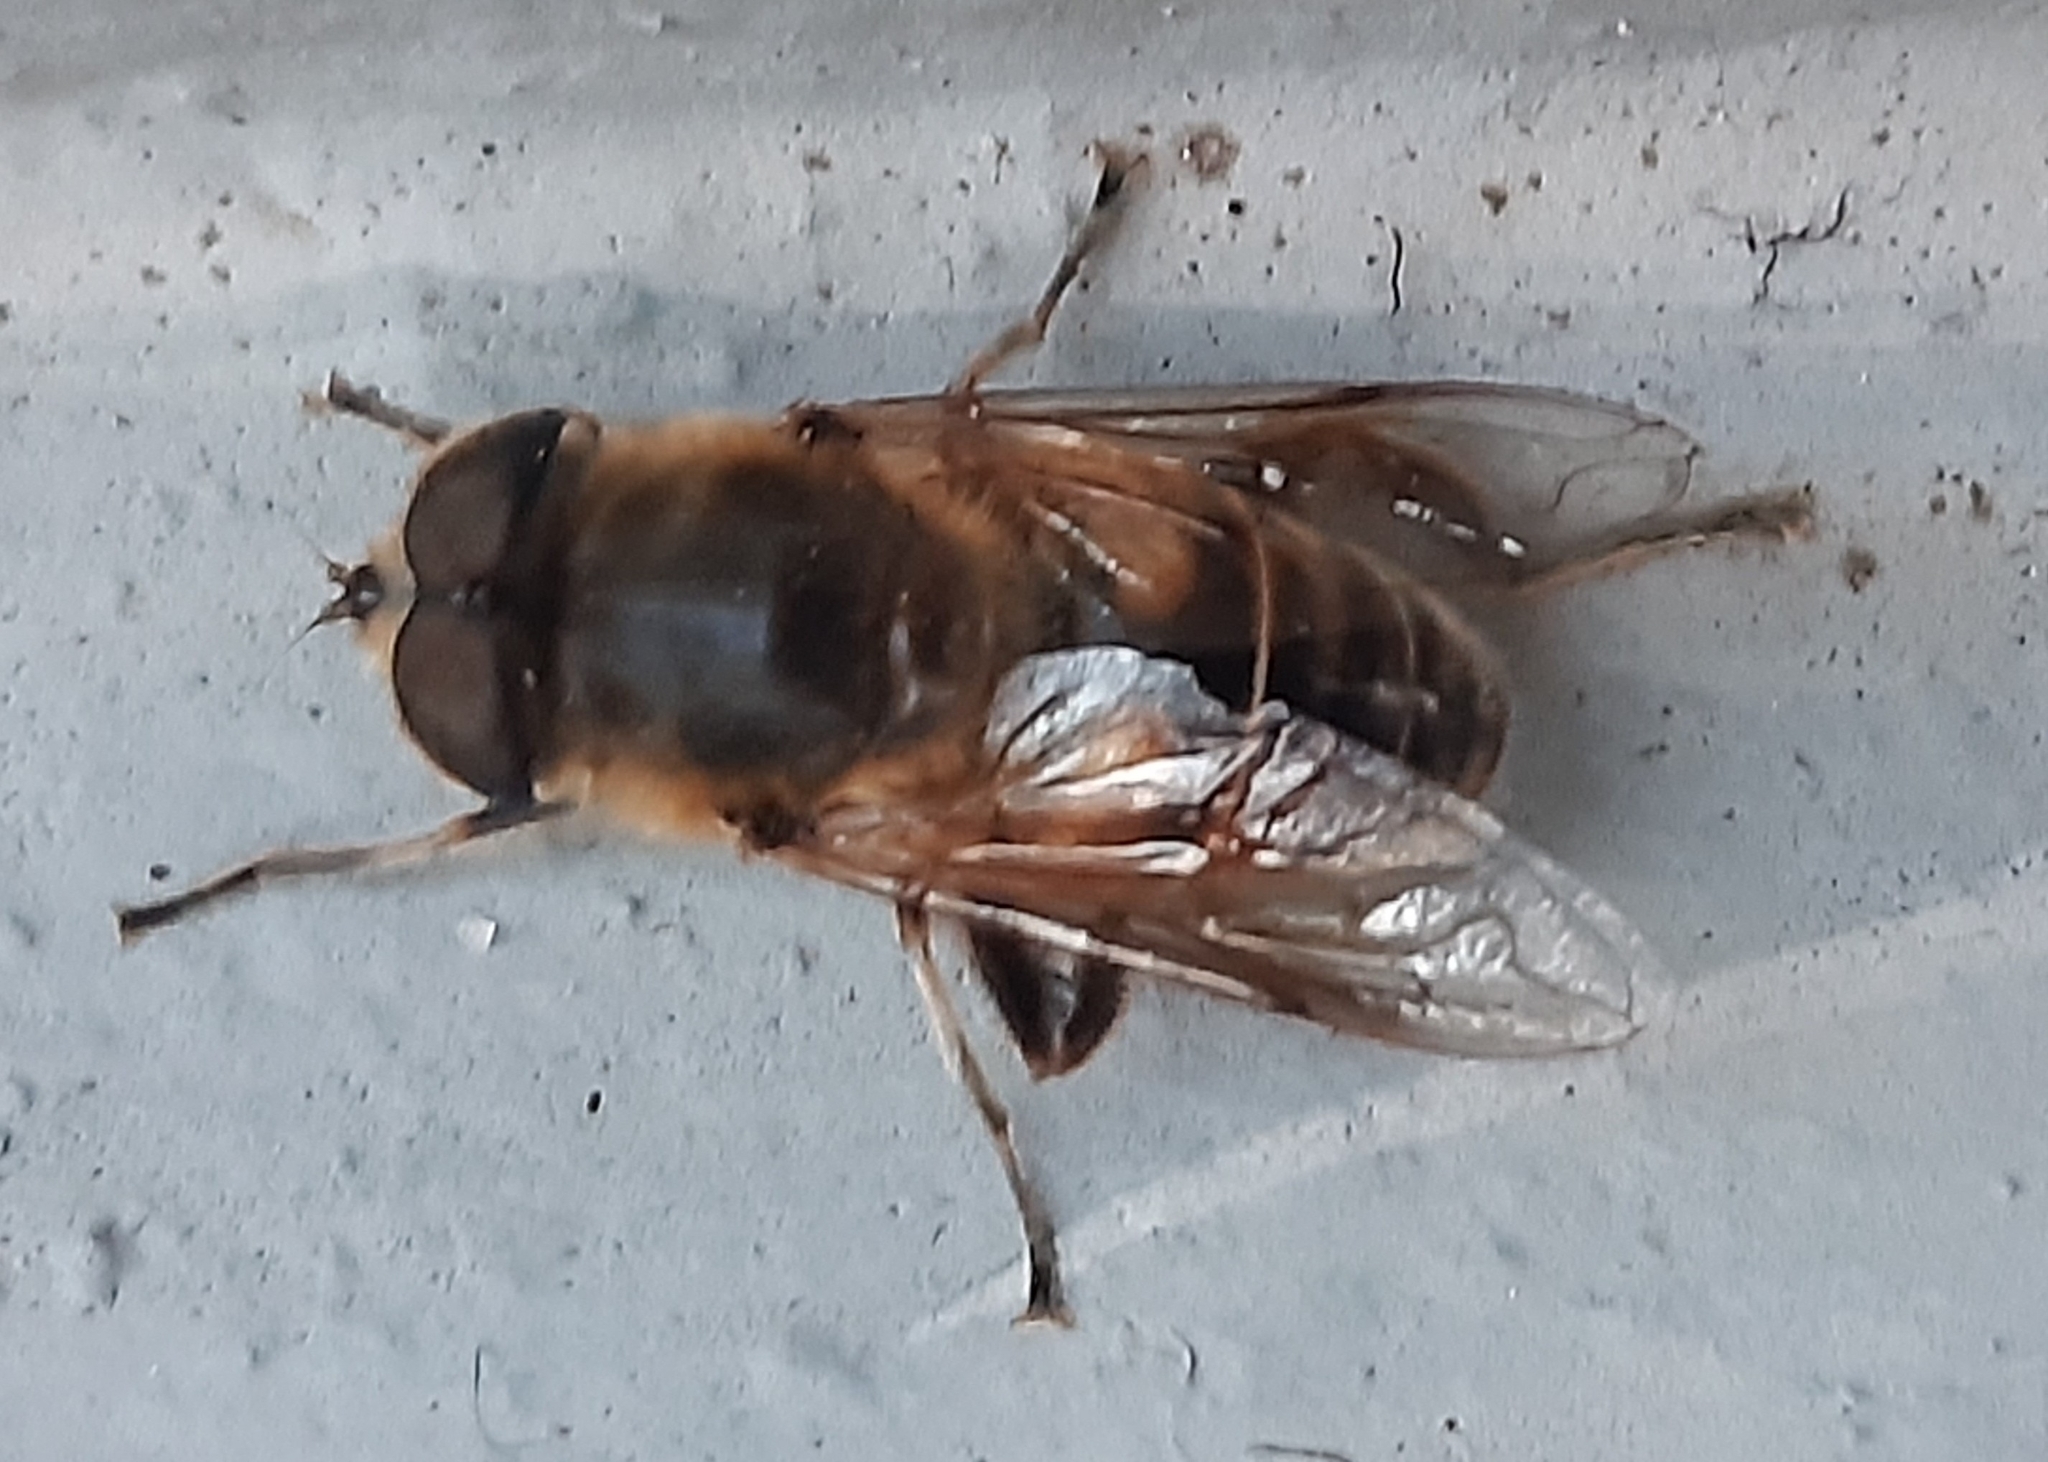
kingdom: Animalia
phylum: Arthropoda
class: Insecta
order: Diptera
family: Syrphidae
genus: Eristalis
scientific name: Eristalis tenax
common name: Drone fly
